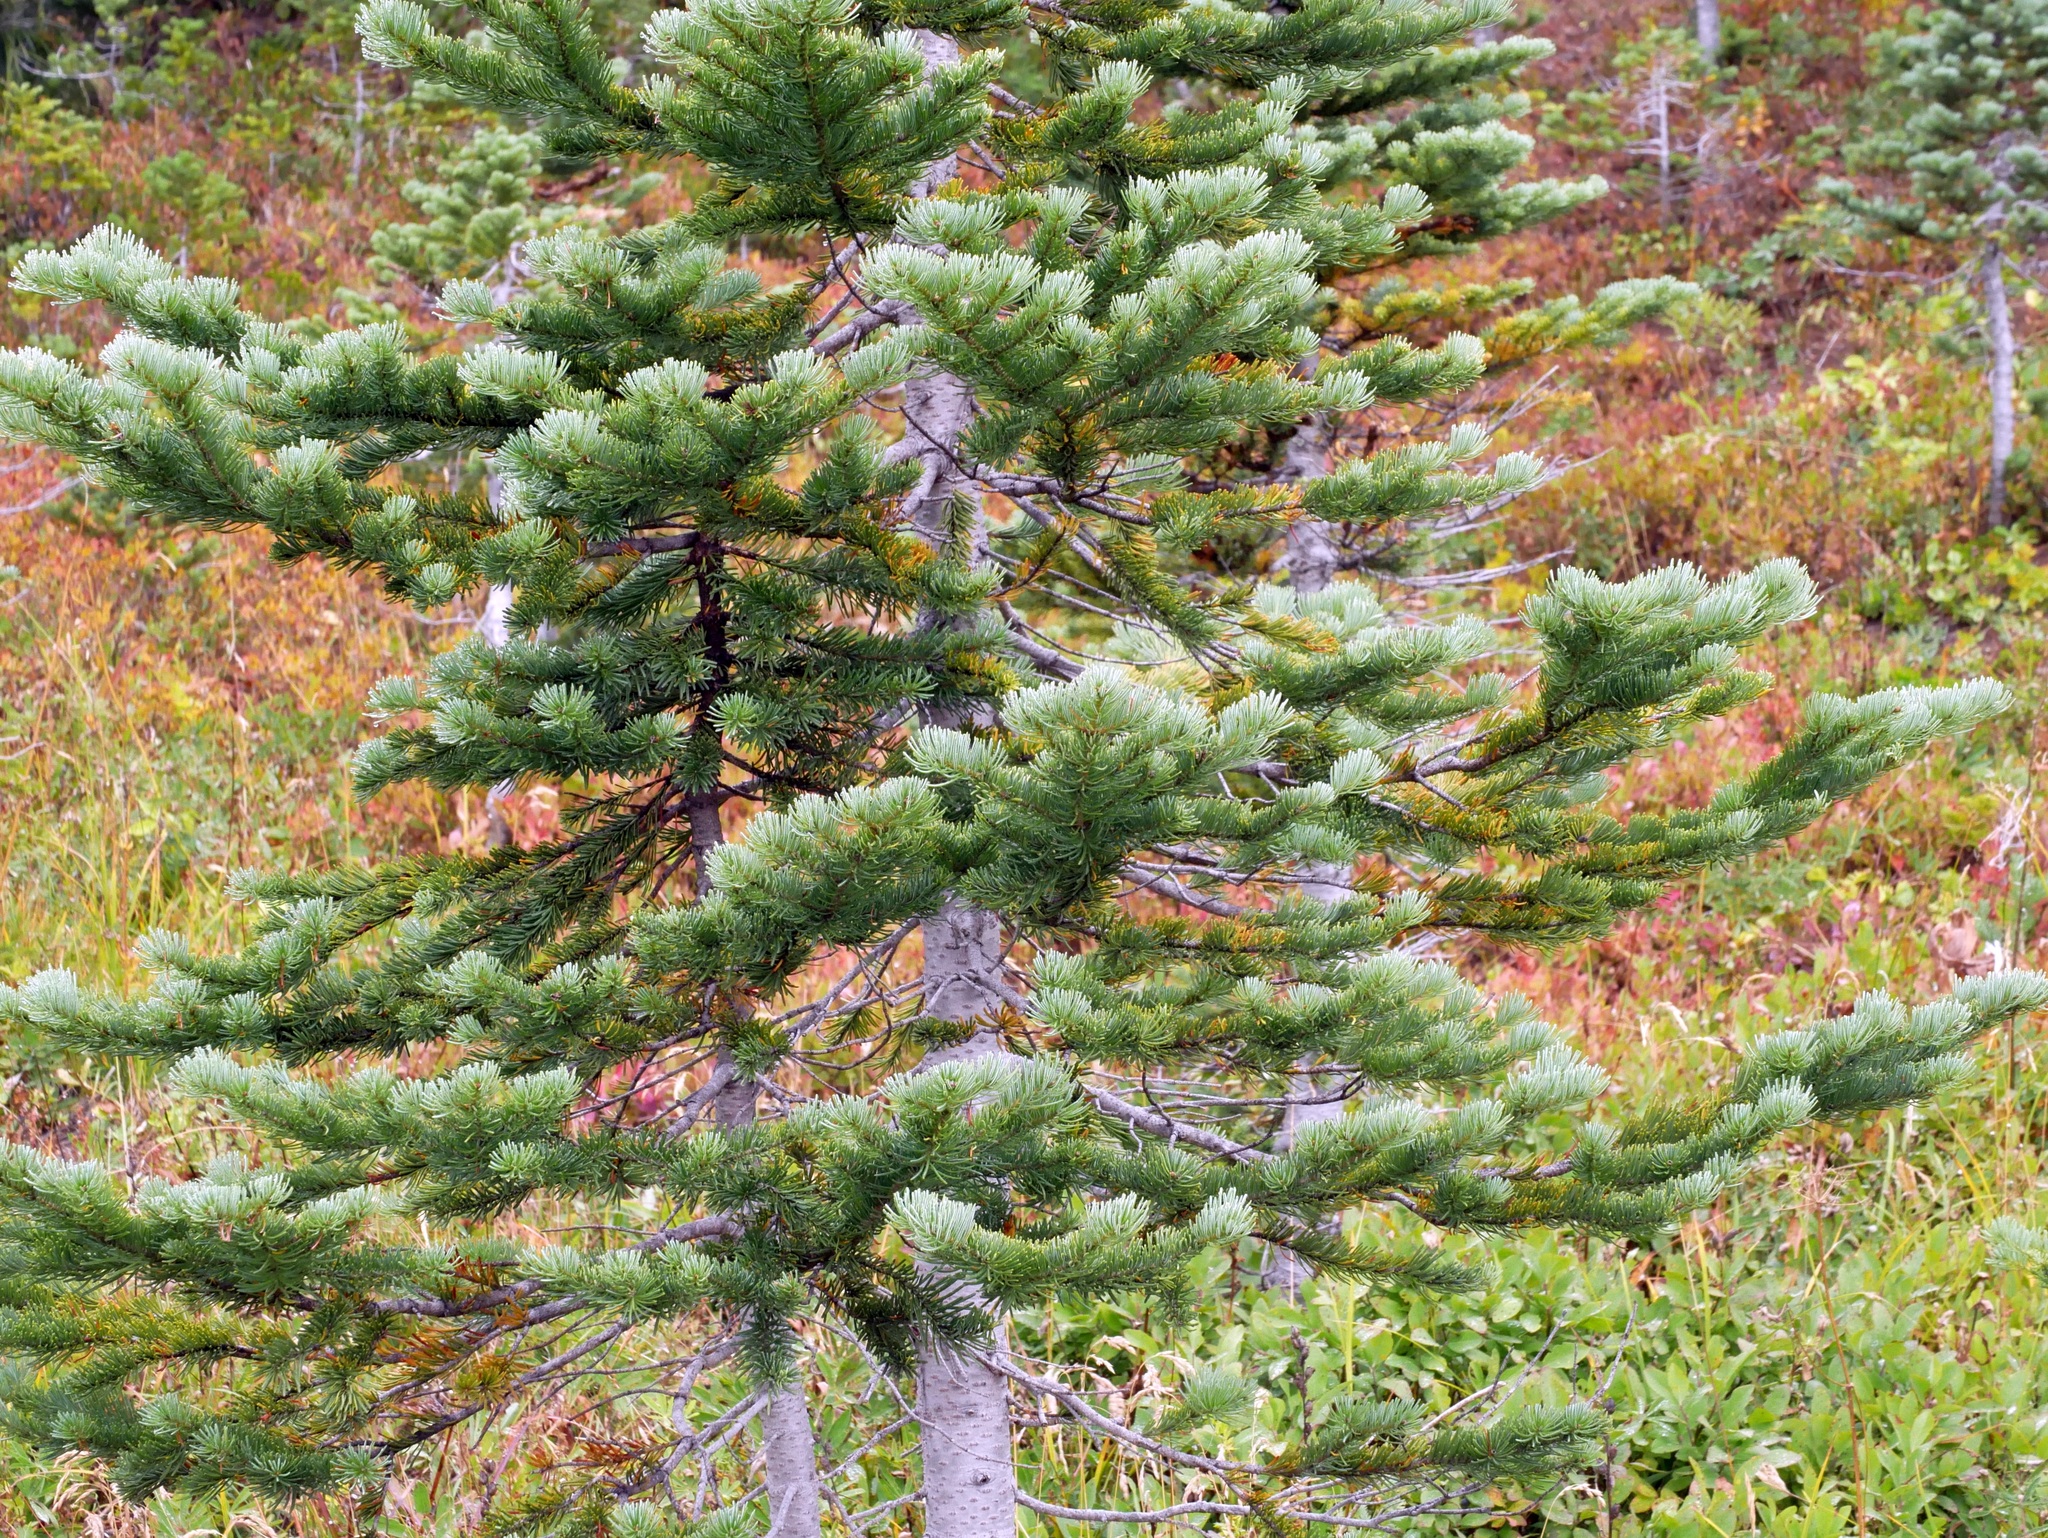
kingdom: Plantae
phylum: Tracheophyta
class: Pinopsida
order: Pinales
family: Pinaceae
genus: Abies
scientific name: Abies lasiocarpa
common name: Subalpine fir
